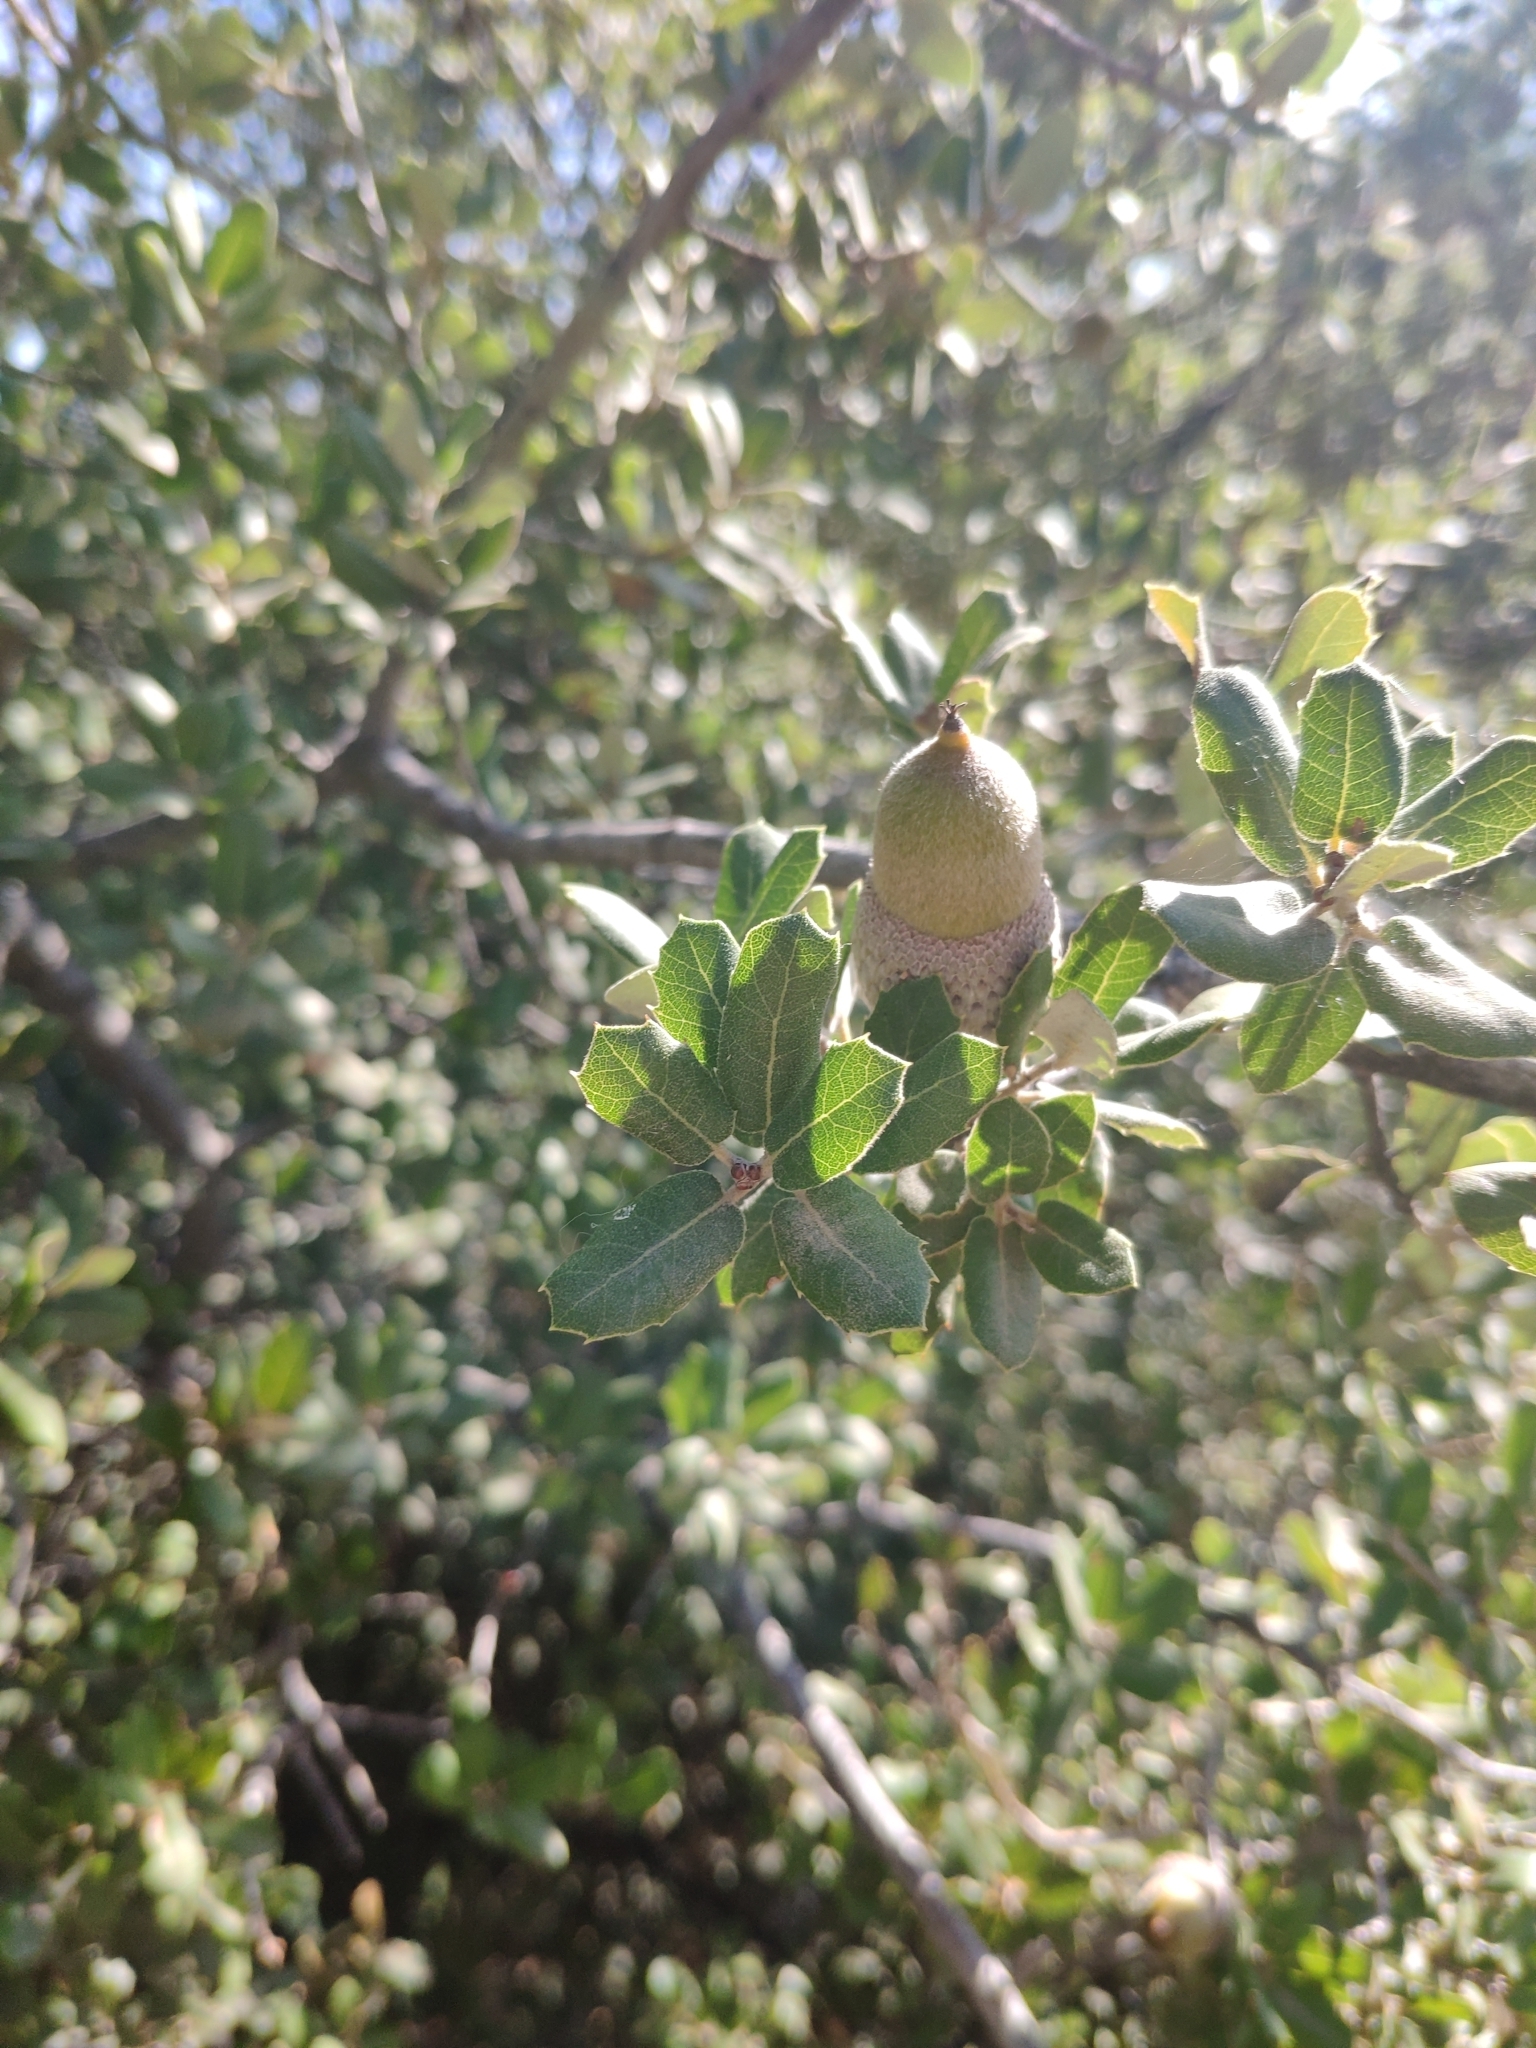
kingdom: Plantae
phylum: Tracheophyta
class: Magnoliopsida
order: Fagales
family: Fagaceae
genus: Quercus
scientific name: Quercus aucheri
